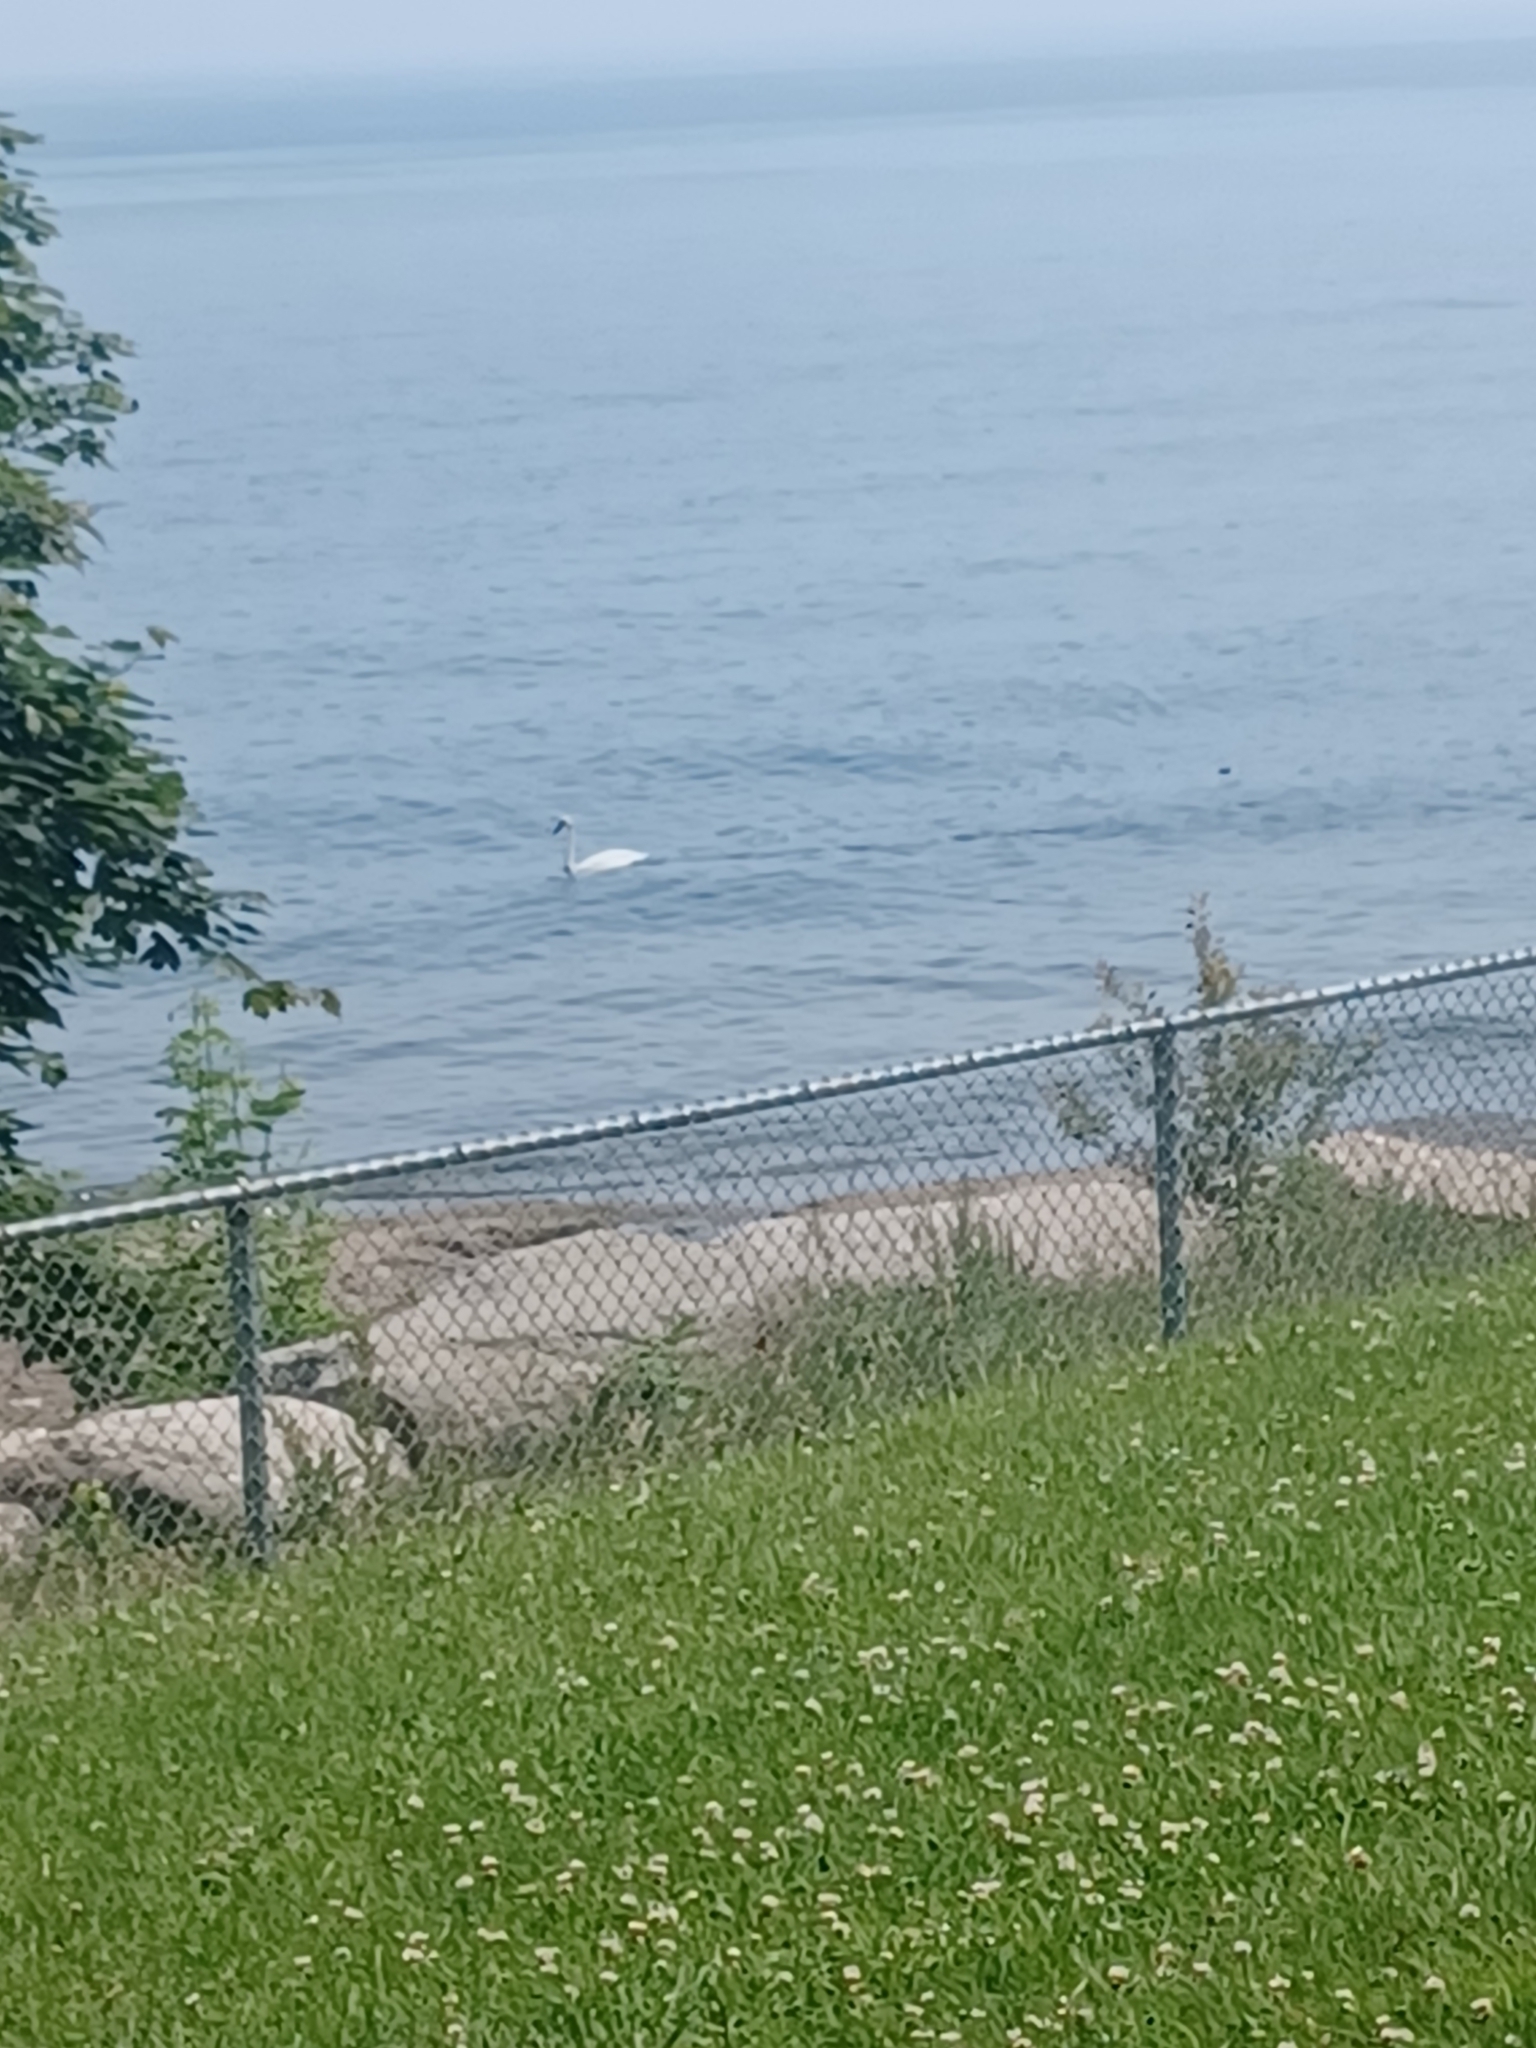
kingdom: Animalia
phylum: Chordata
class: Aves
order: Anseriformes
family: Anatidae
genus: Cygnus
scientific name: Cygnus buccinator
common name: Trumpeter swan
